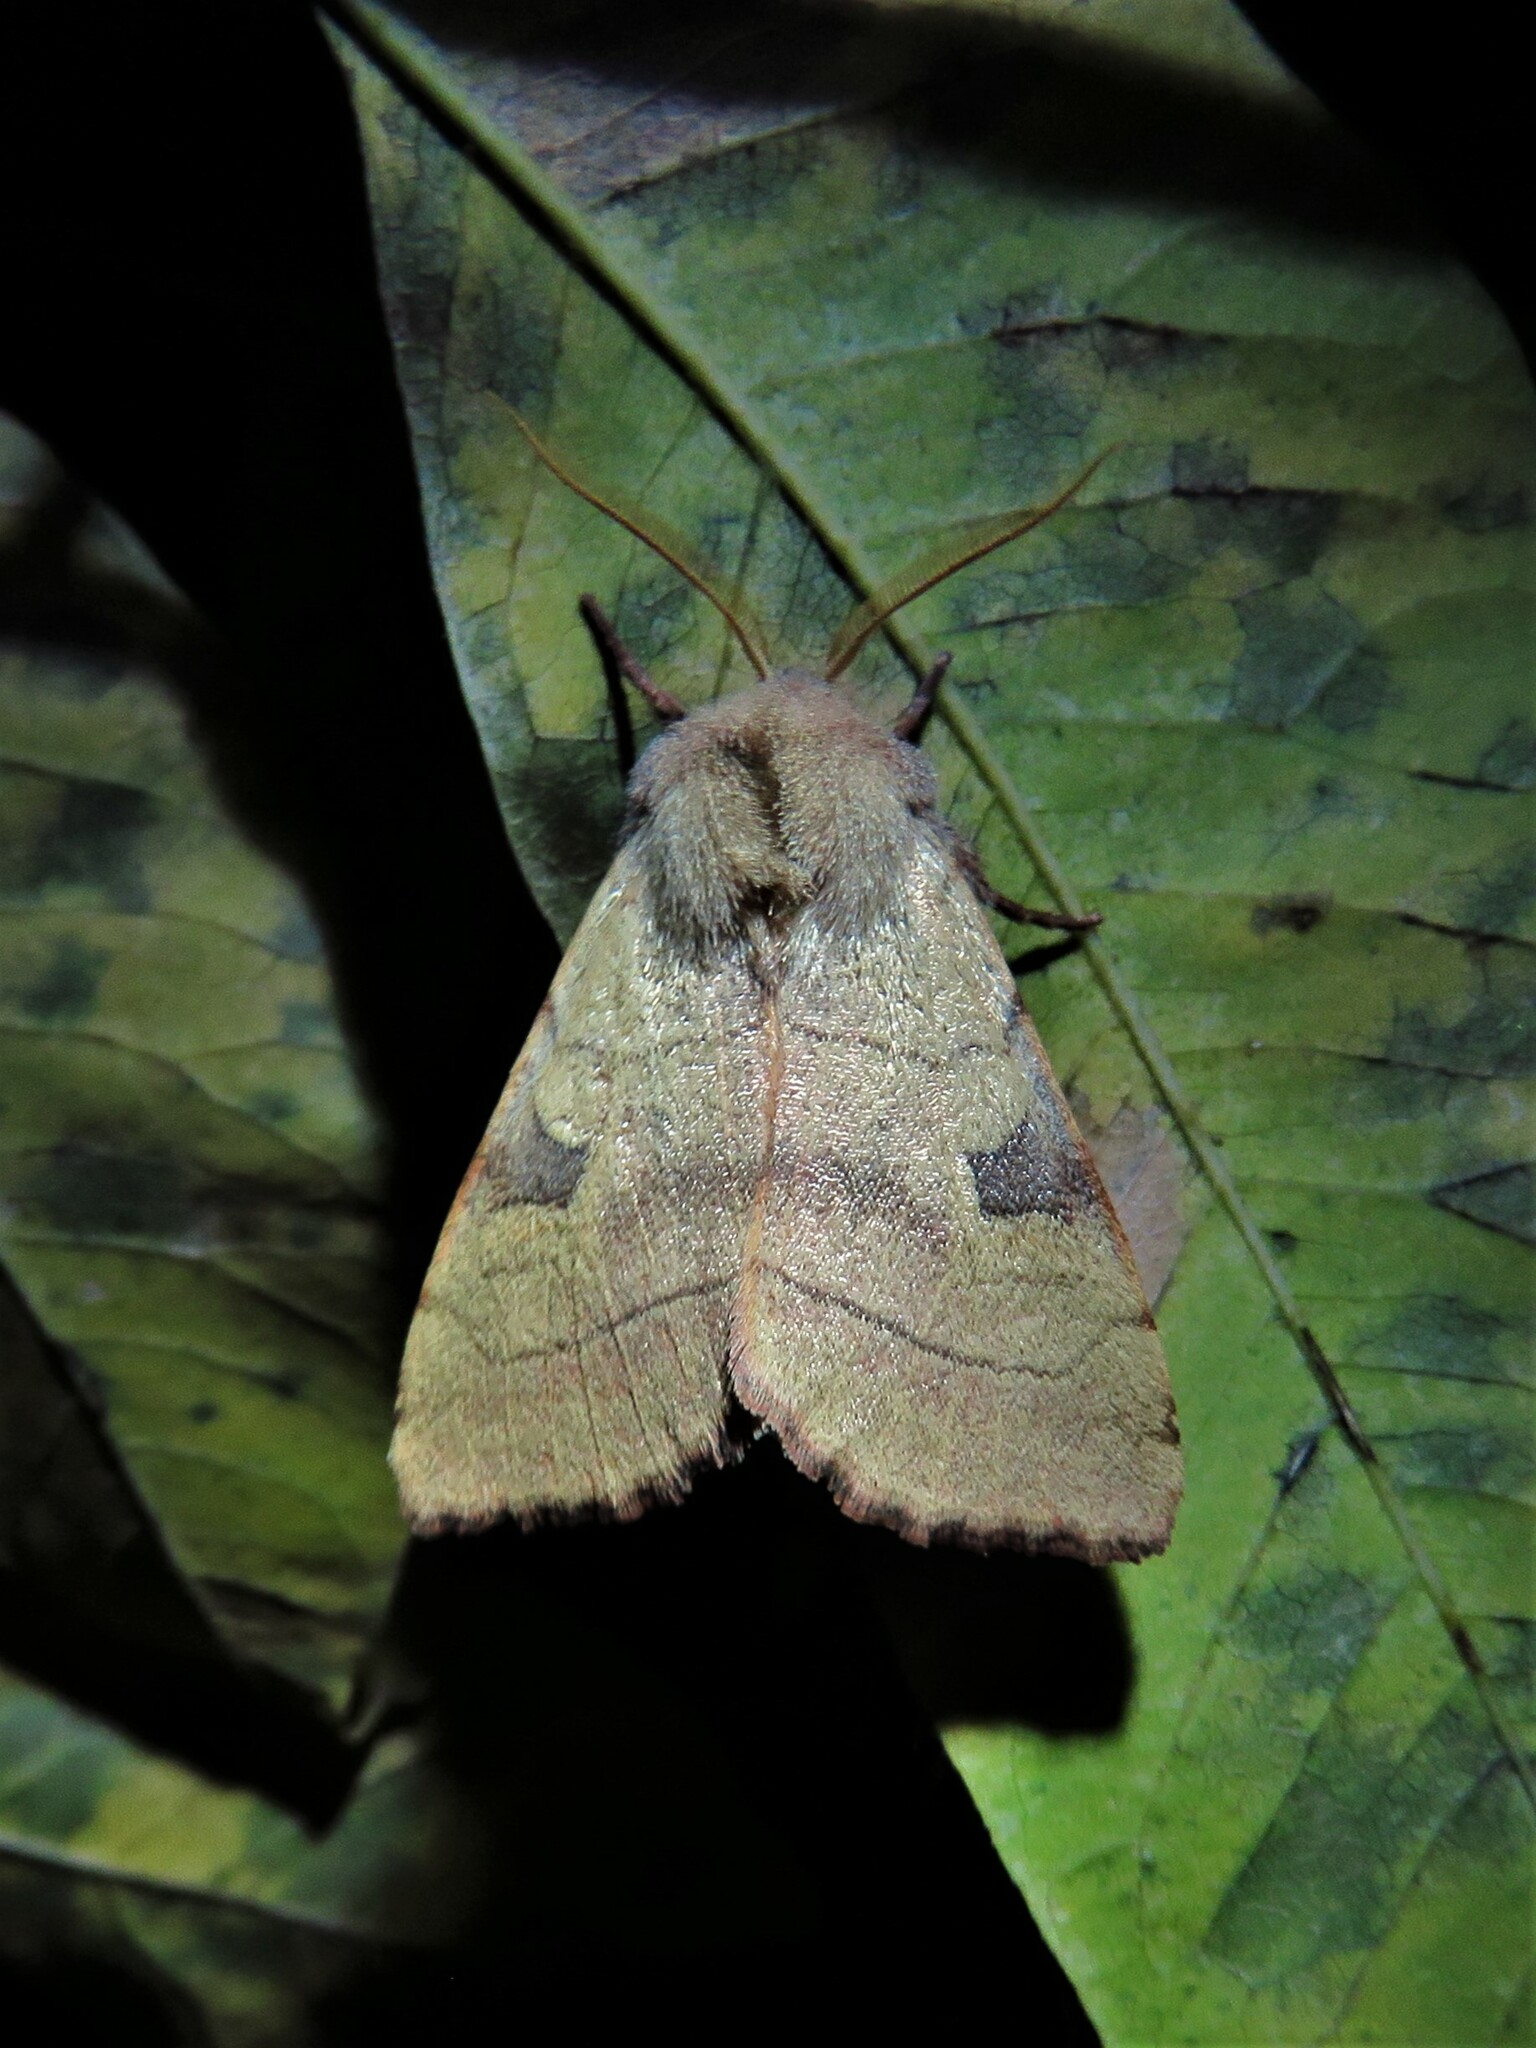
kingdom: Animalia
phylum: Arthropoda
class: Insecta
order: Lepidoptera
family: Noctuidae
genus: Choephora
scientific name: Choephora fungorum
